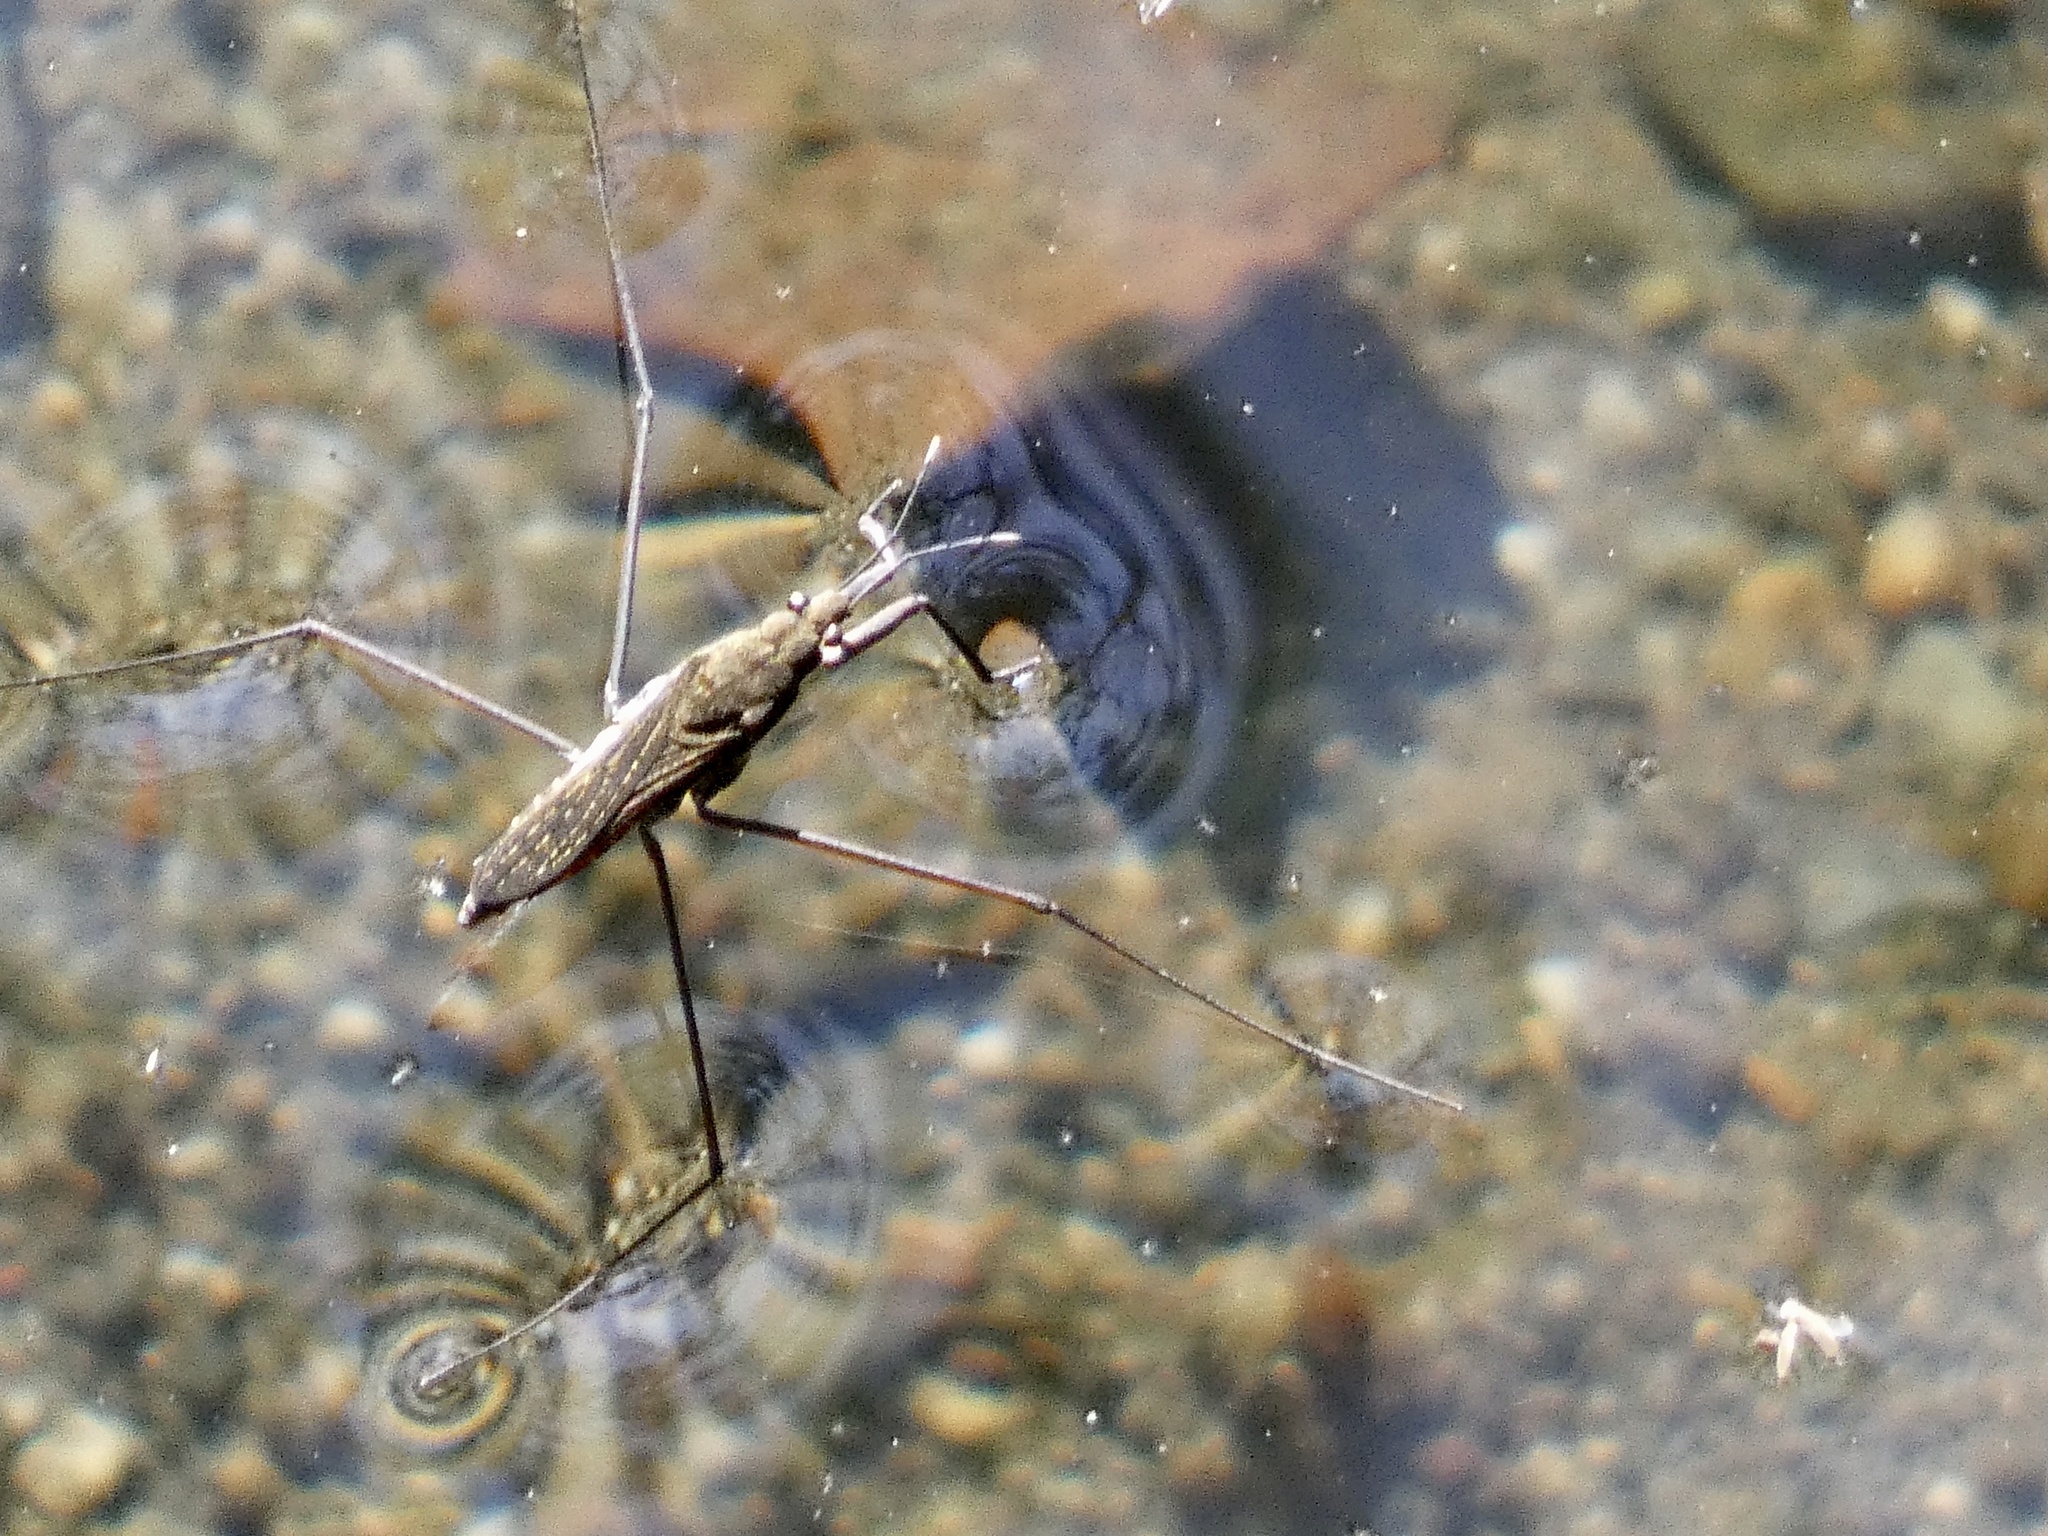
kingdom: Animalia
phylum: Arthropoda
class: Insecta
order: Hemiptera
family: Gerridae
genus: Aquarius
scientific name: Aquarius remigis
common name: Common water strider
